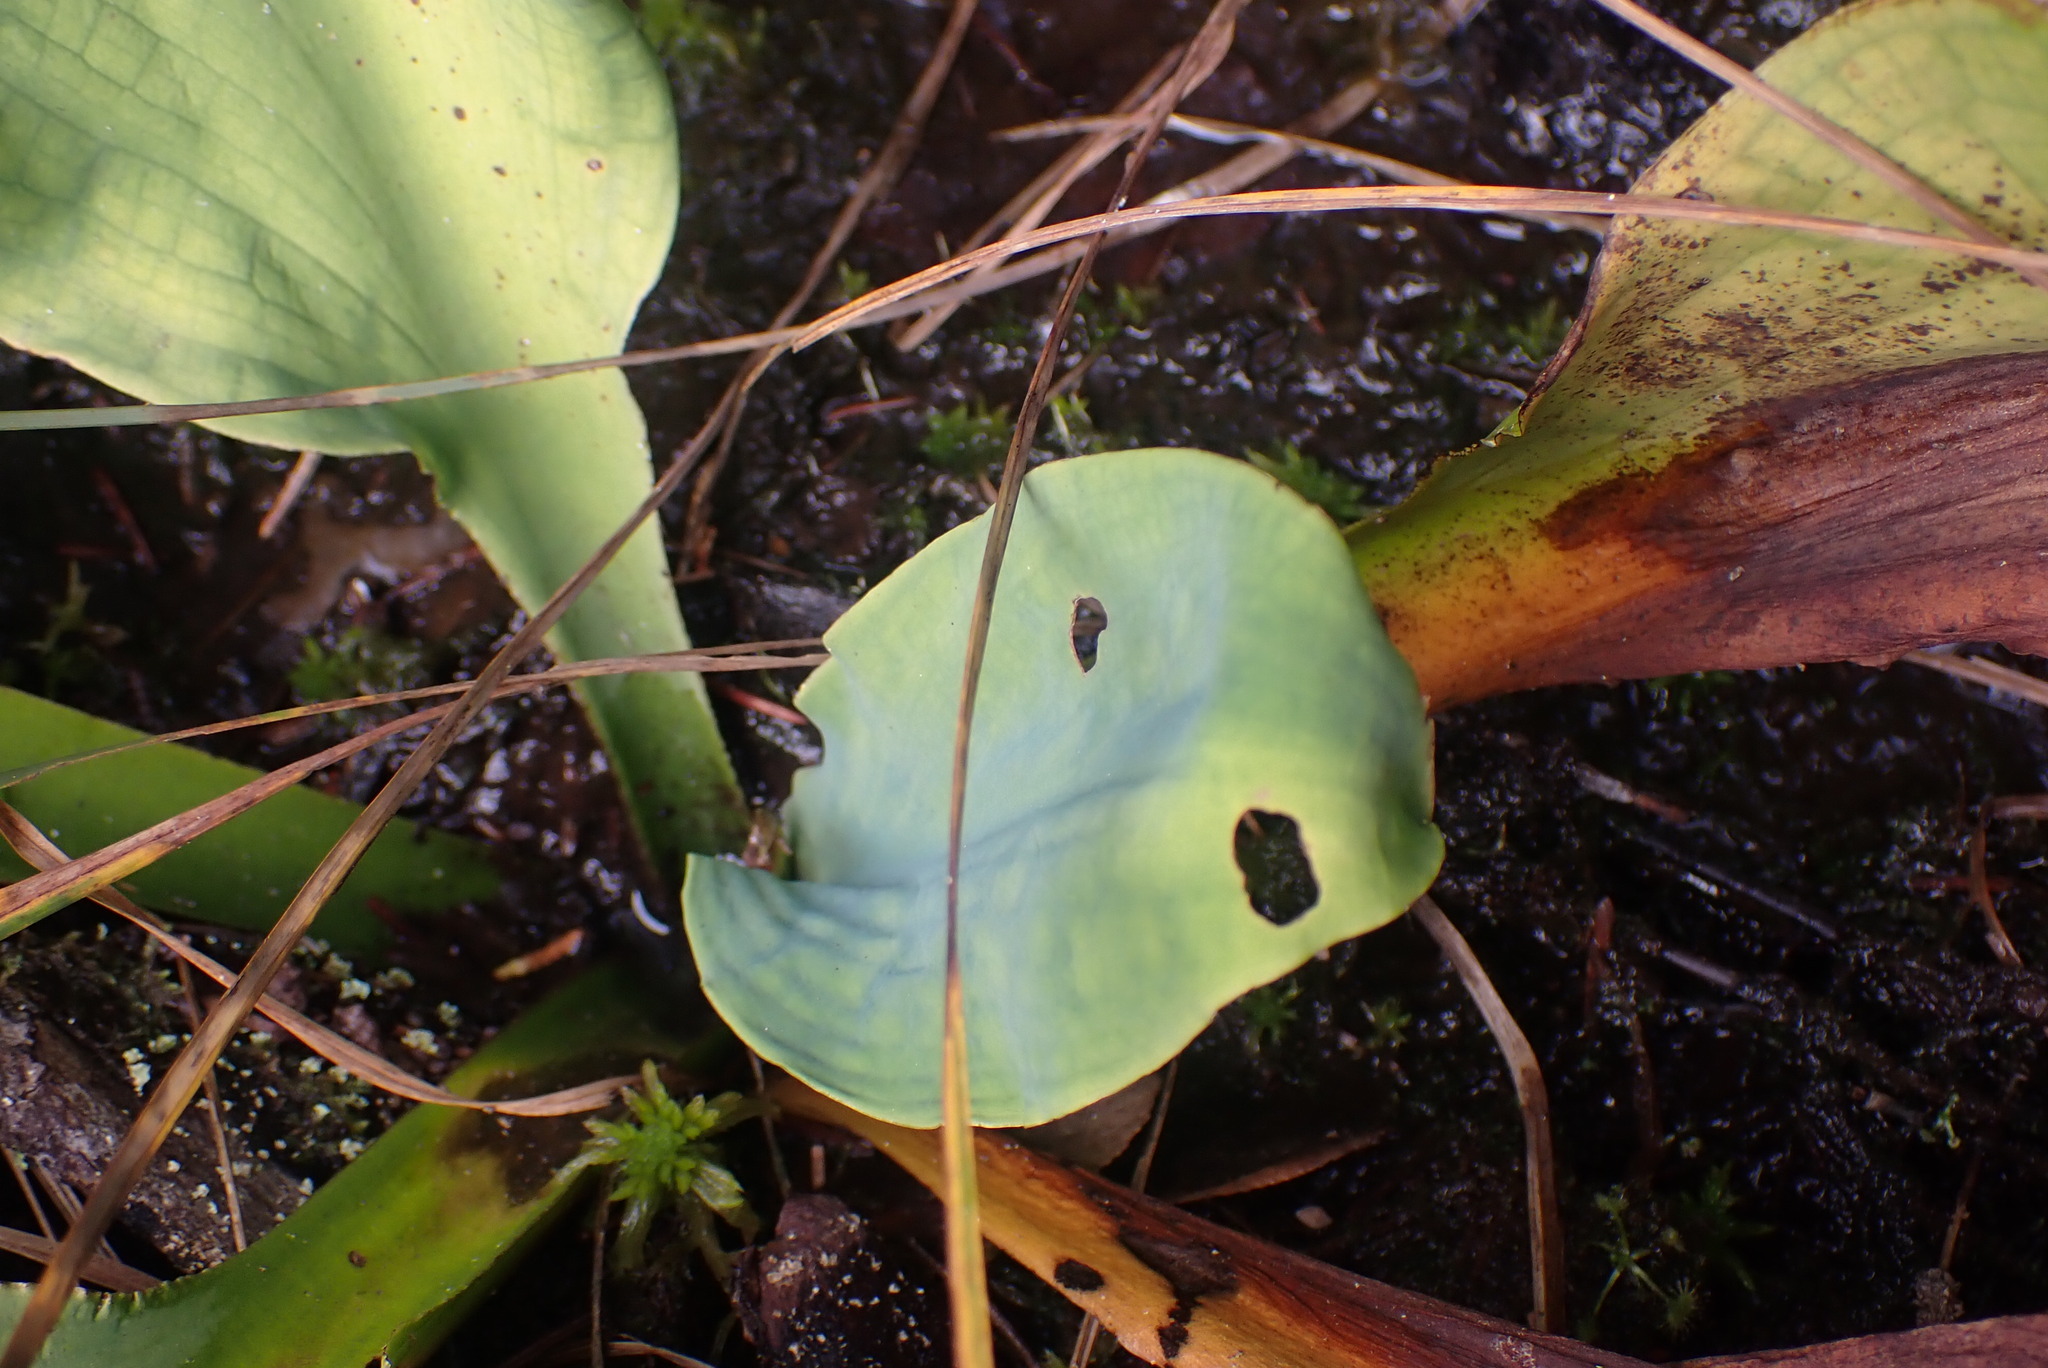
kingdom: Plantae
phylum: Tracheophyta
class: Liliopsida
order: Alismatales
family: Araceae
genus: Lysichiton
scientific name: Lysichiton americanus
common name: American skunk cabbage
